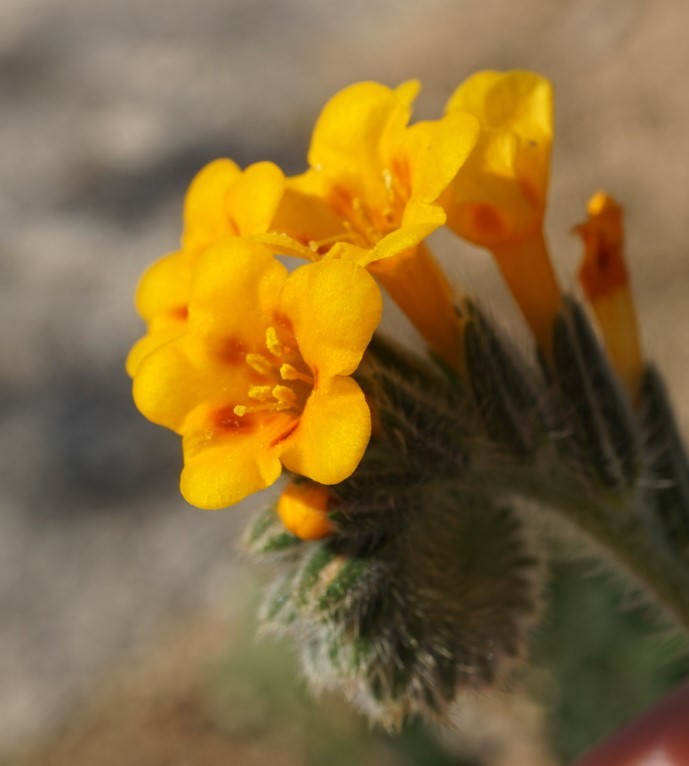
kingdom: Plantae
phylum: Tracheophyta
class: Magnoliopsida
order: Boraginales
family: Boraginaceae
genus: Amsinckia
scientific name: Amsinckia eastwoodiae
